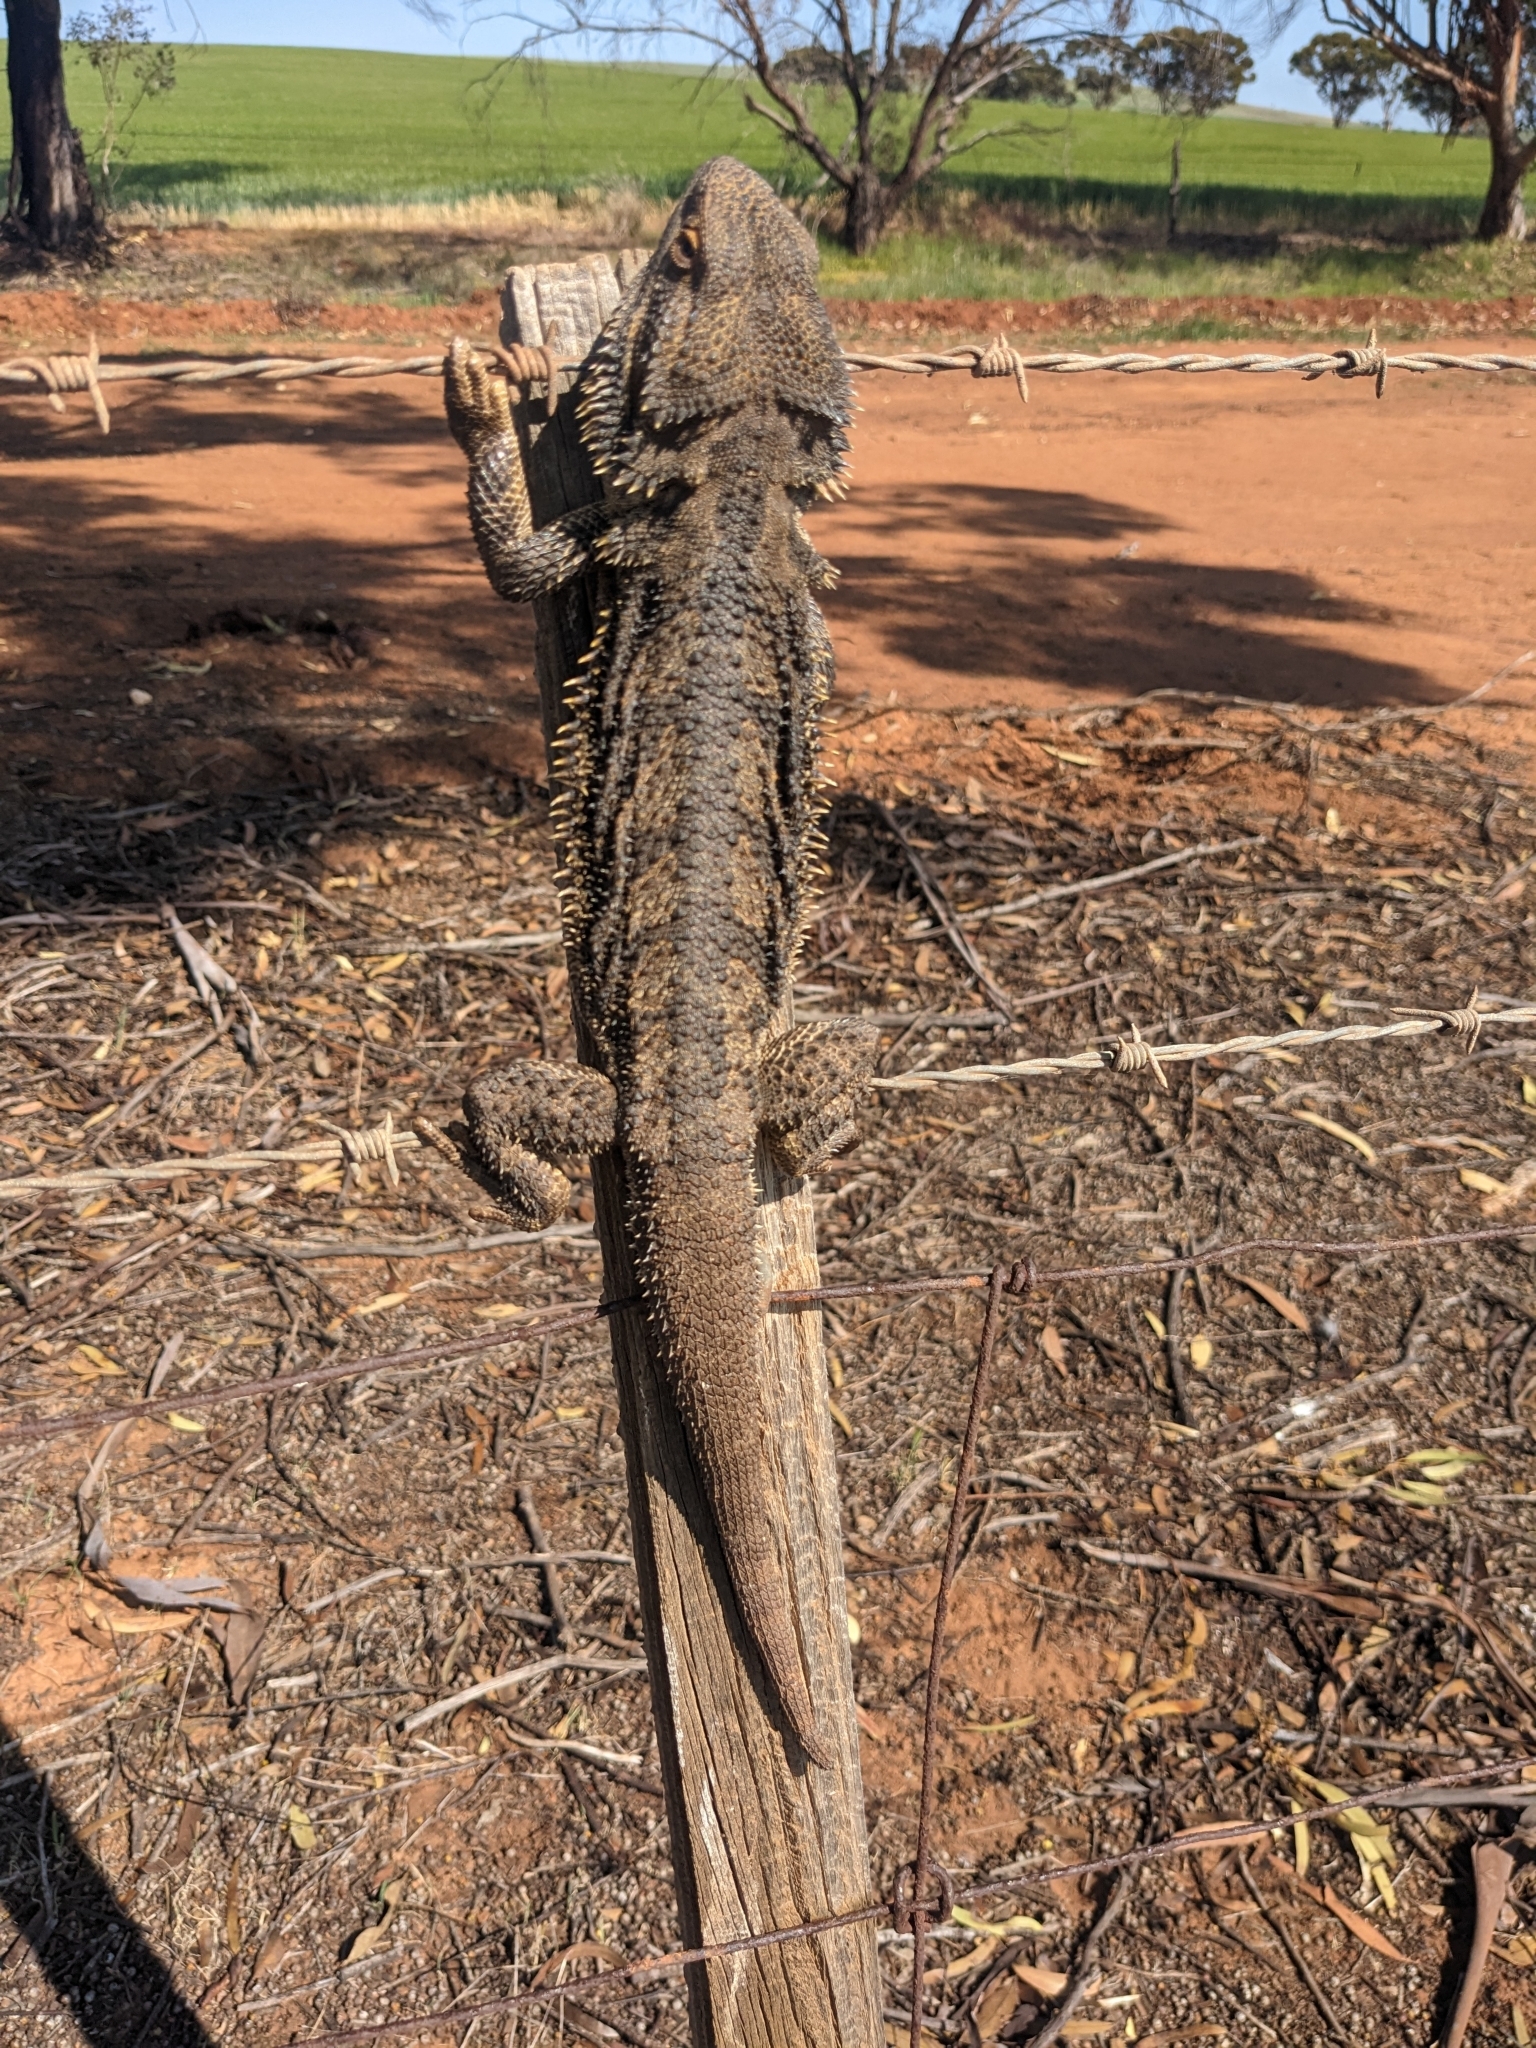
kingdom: Animalia
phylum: Chordata
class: Squamata
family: Agamidae
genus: Pogona
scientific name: Pogona vitticeps
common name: Central bearded dragon
